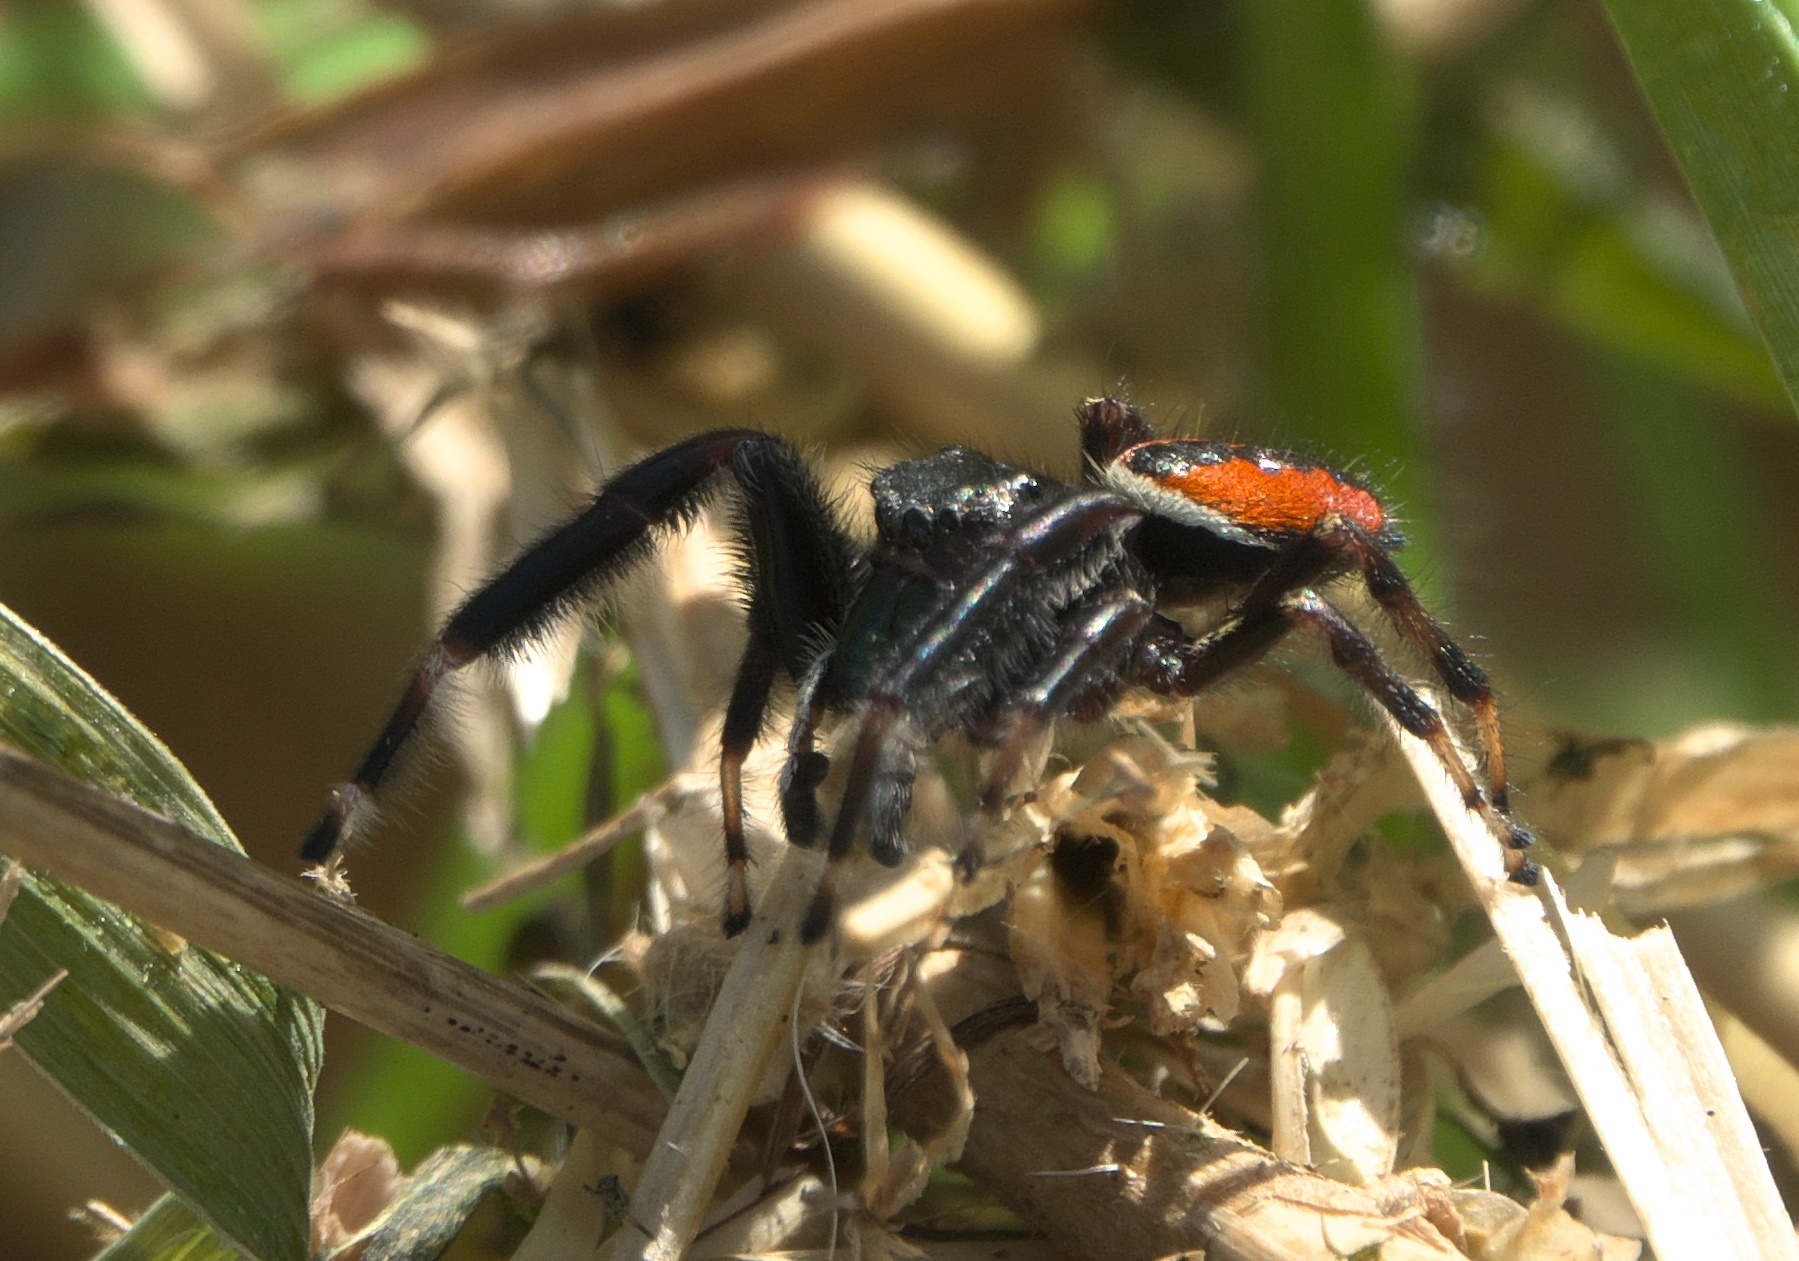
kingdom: Animalia
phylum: Arthropoda
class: Arachnida
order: Araneae
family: Salticidae
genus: Phidippus
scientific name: Phidippus clarus
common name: Brilliant jumping spider
